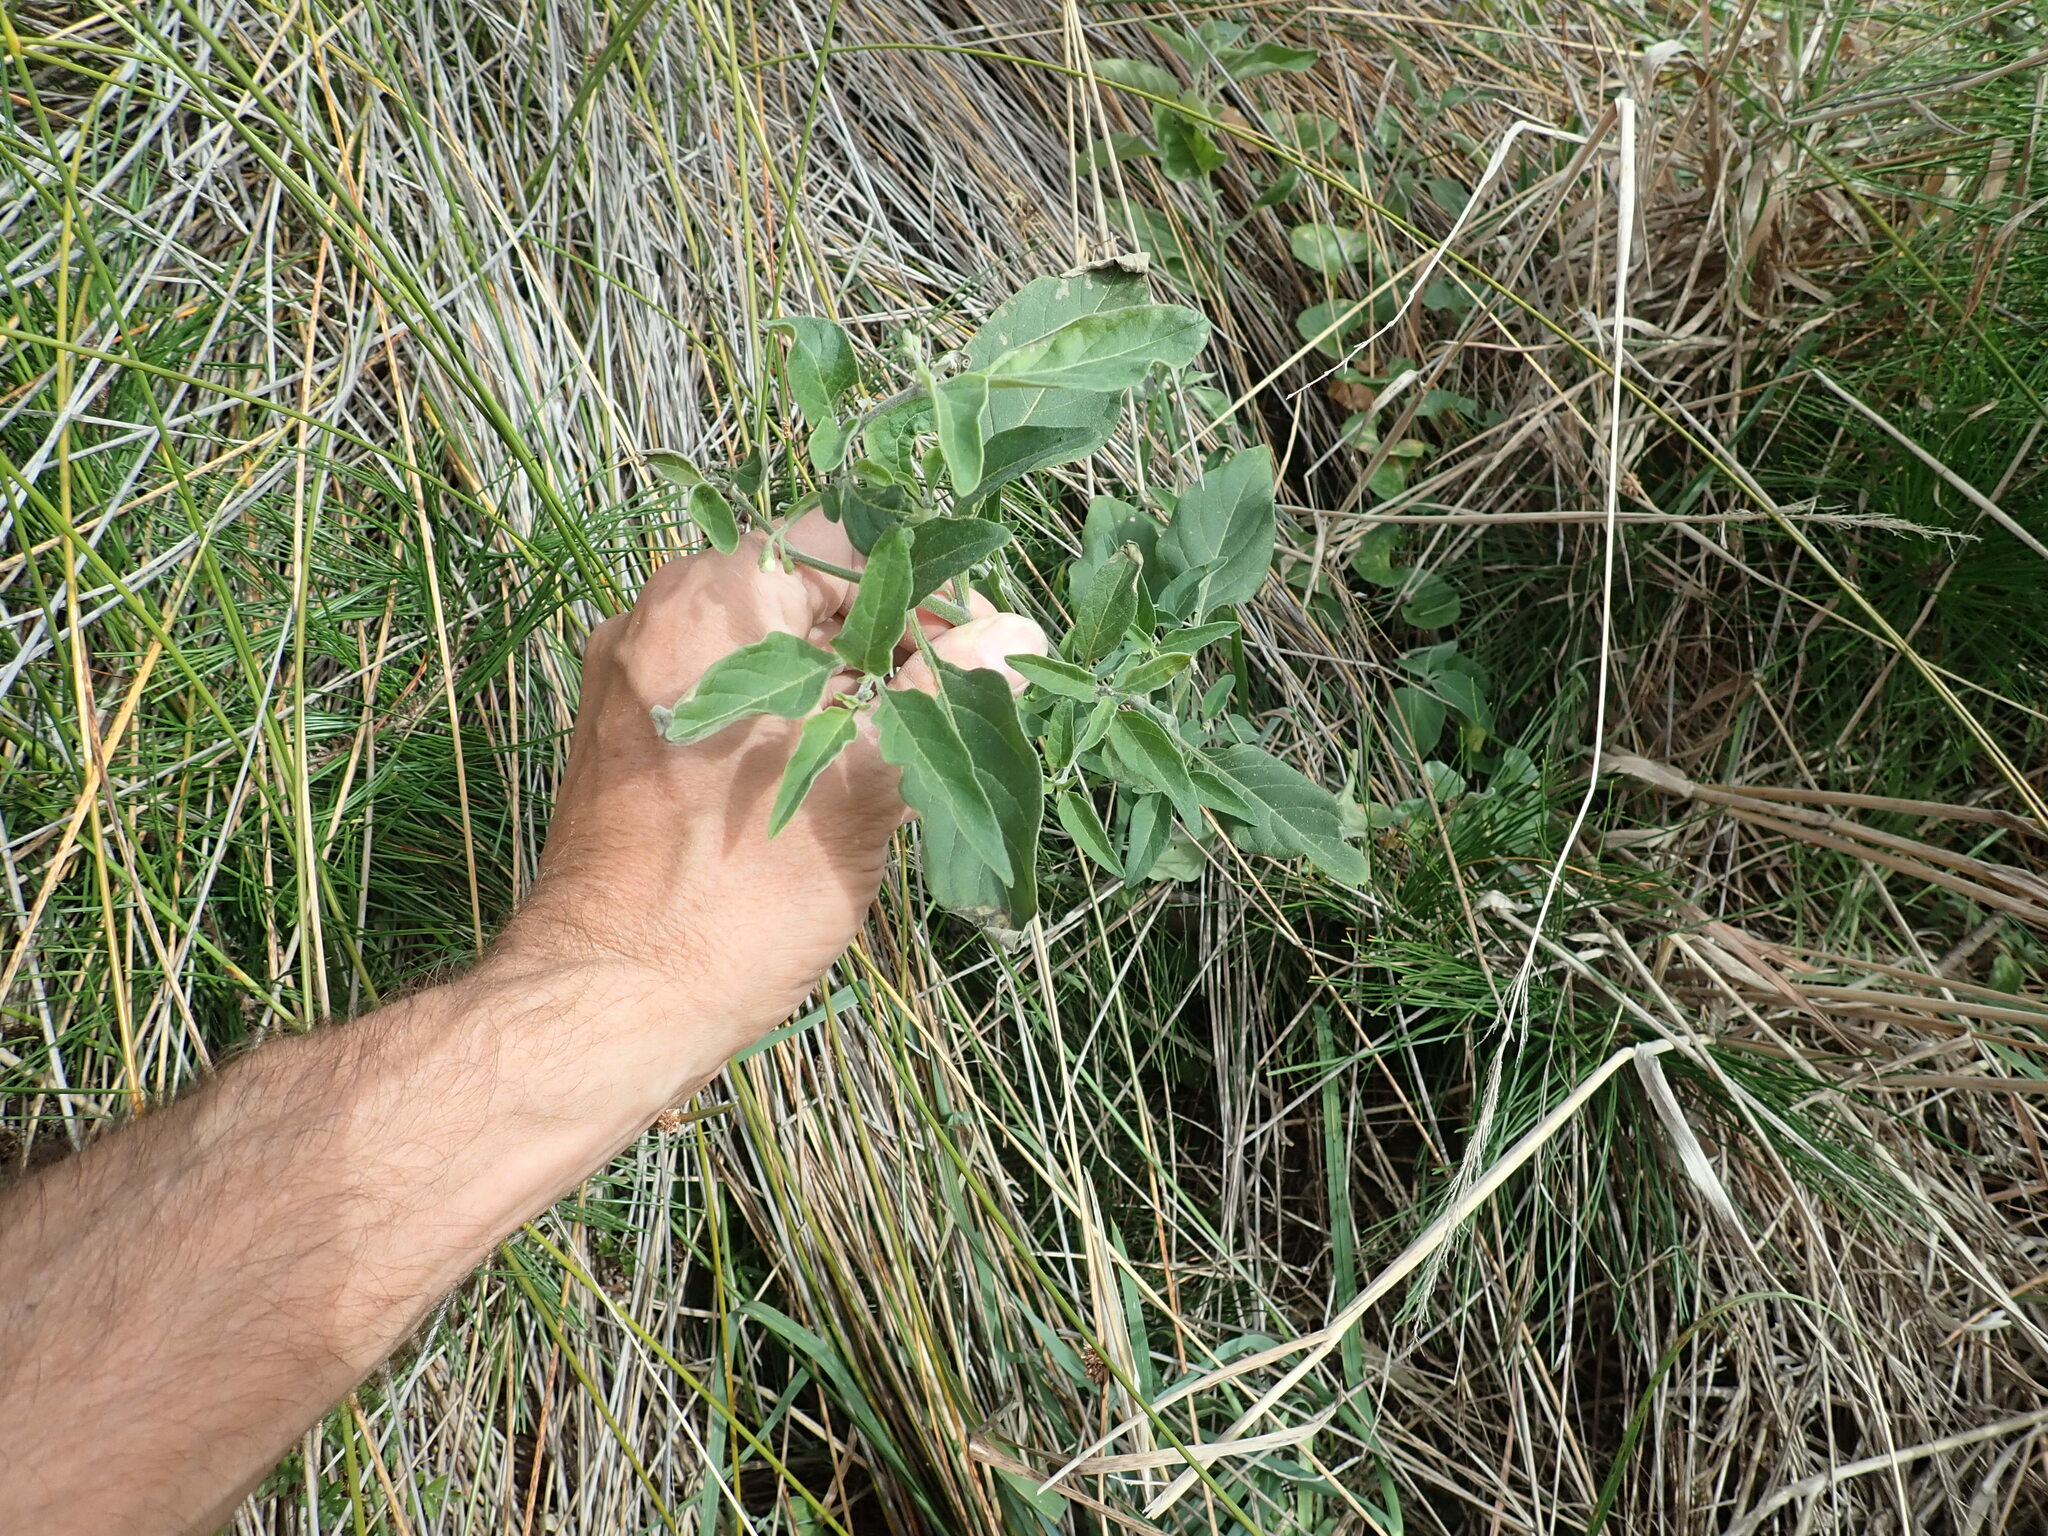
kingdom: Plantae
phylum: Tracheophyta
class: Magnoliopsida
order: Solanales
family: Solanaceae
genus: Solanum
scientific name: Solanum chenopodioides
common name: Tall nightshade
